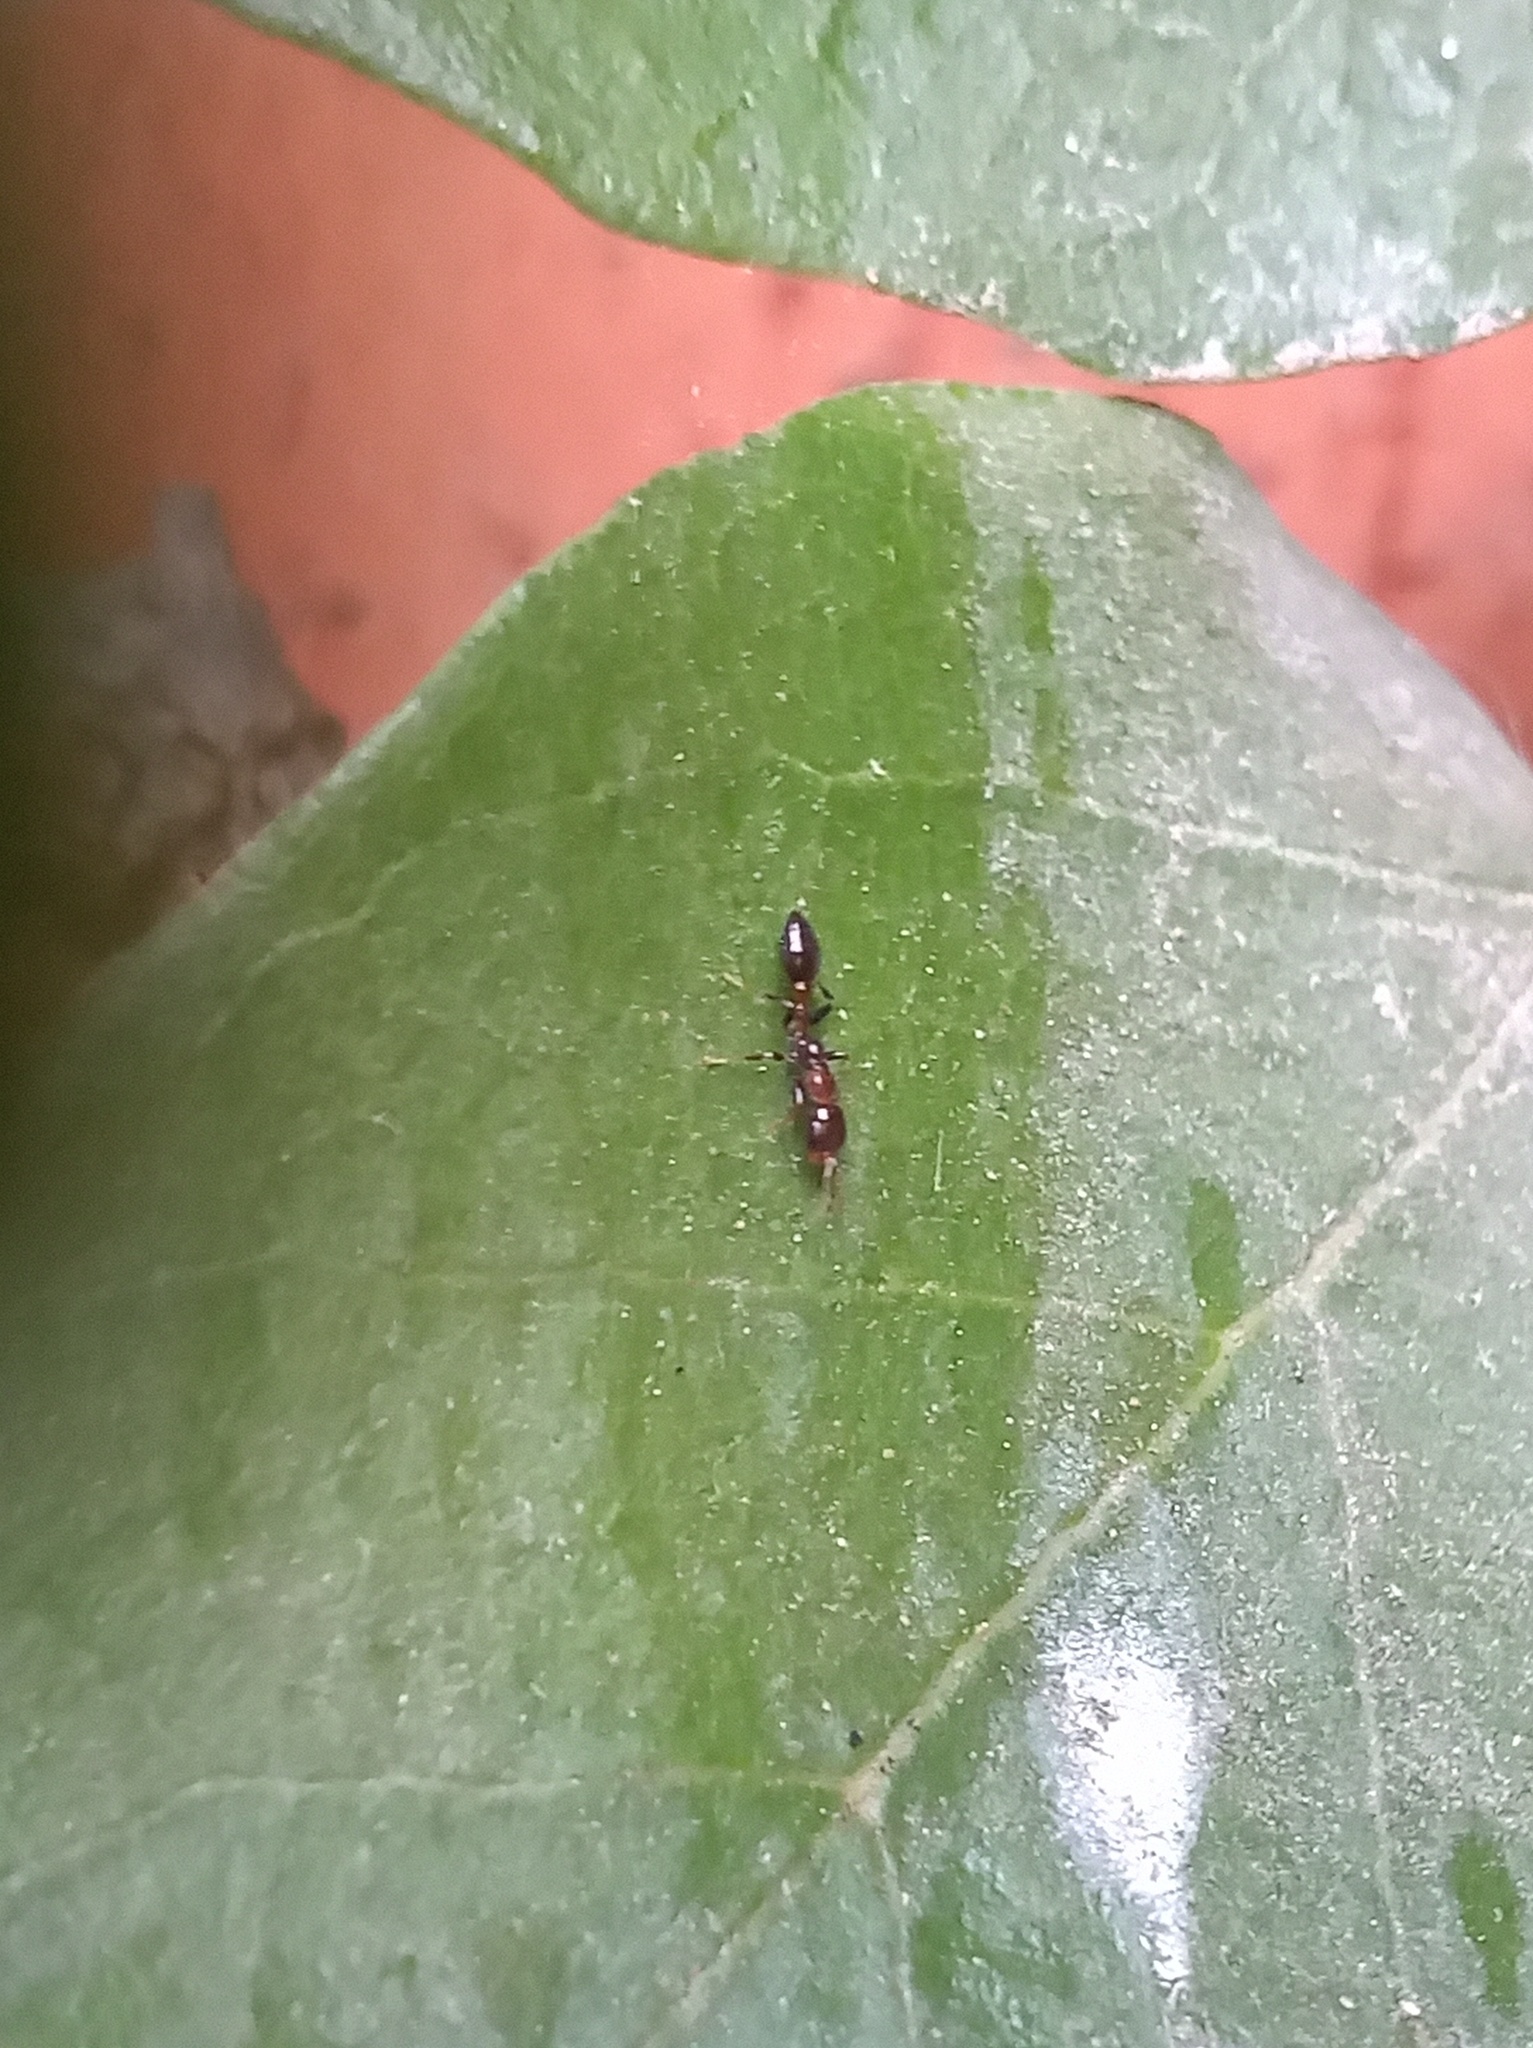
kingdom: Animalia
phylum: Arthropoda
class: Insecta
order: Hymenoptera
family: Formicidae
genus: Pseudomyrmex
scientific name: Pseudomyrmex ejectus
